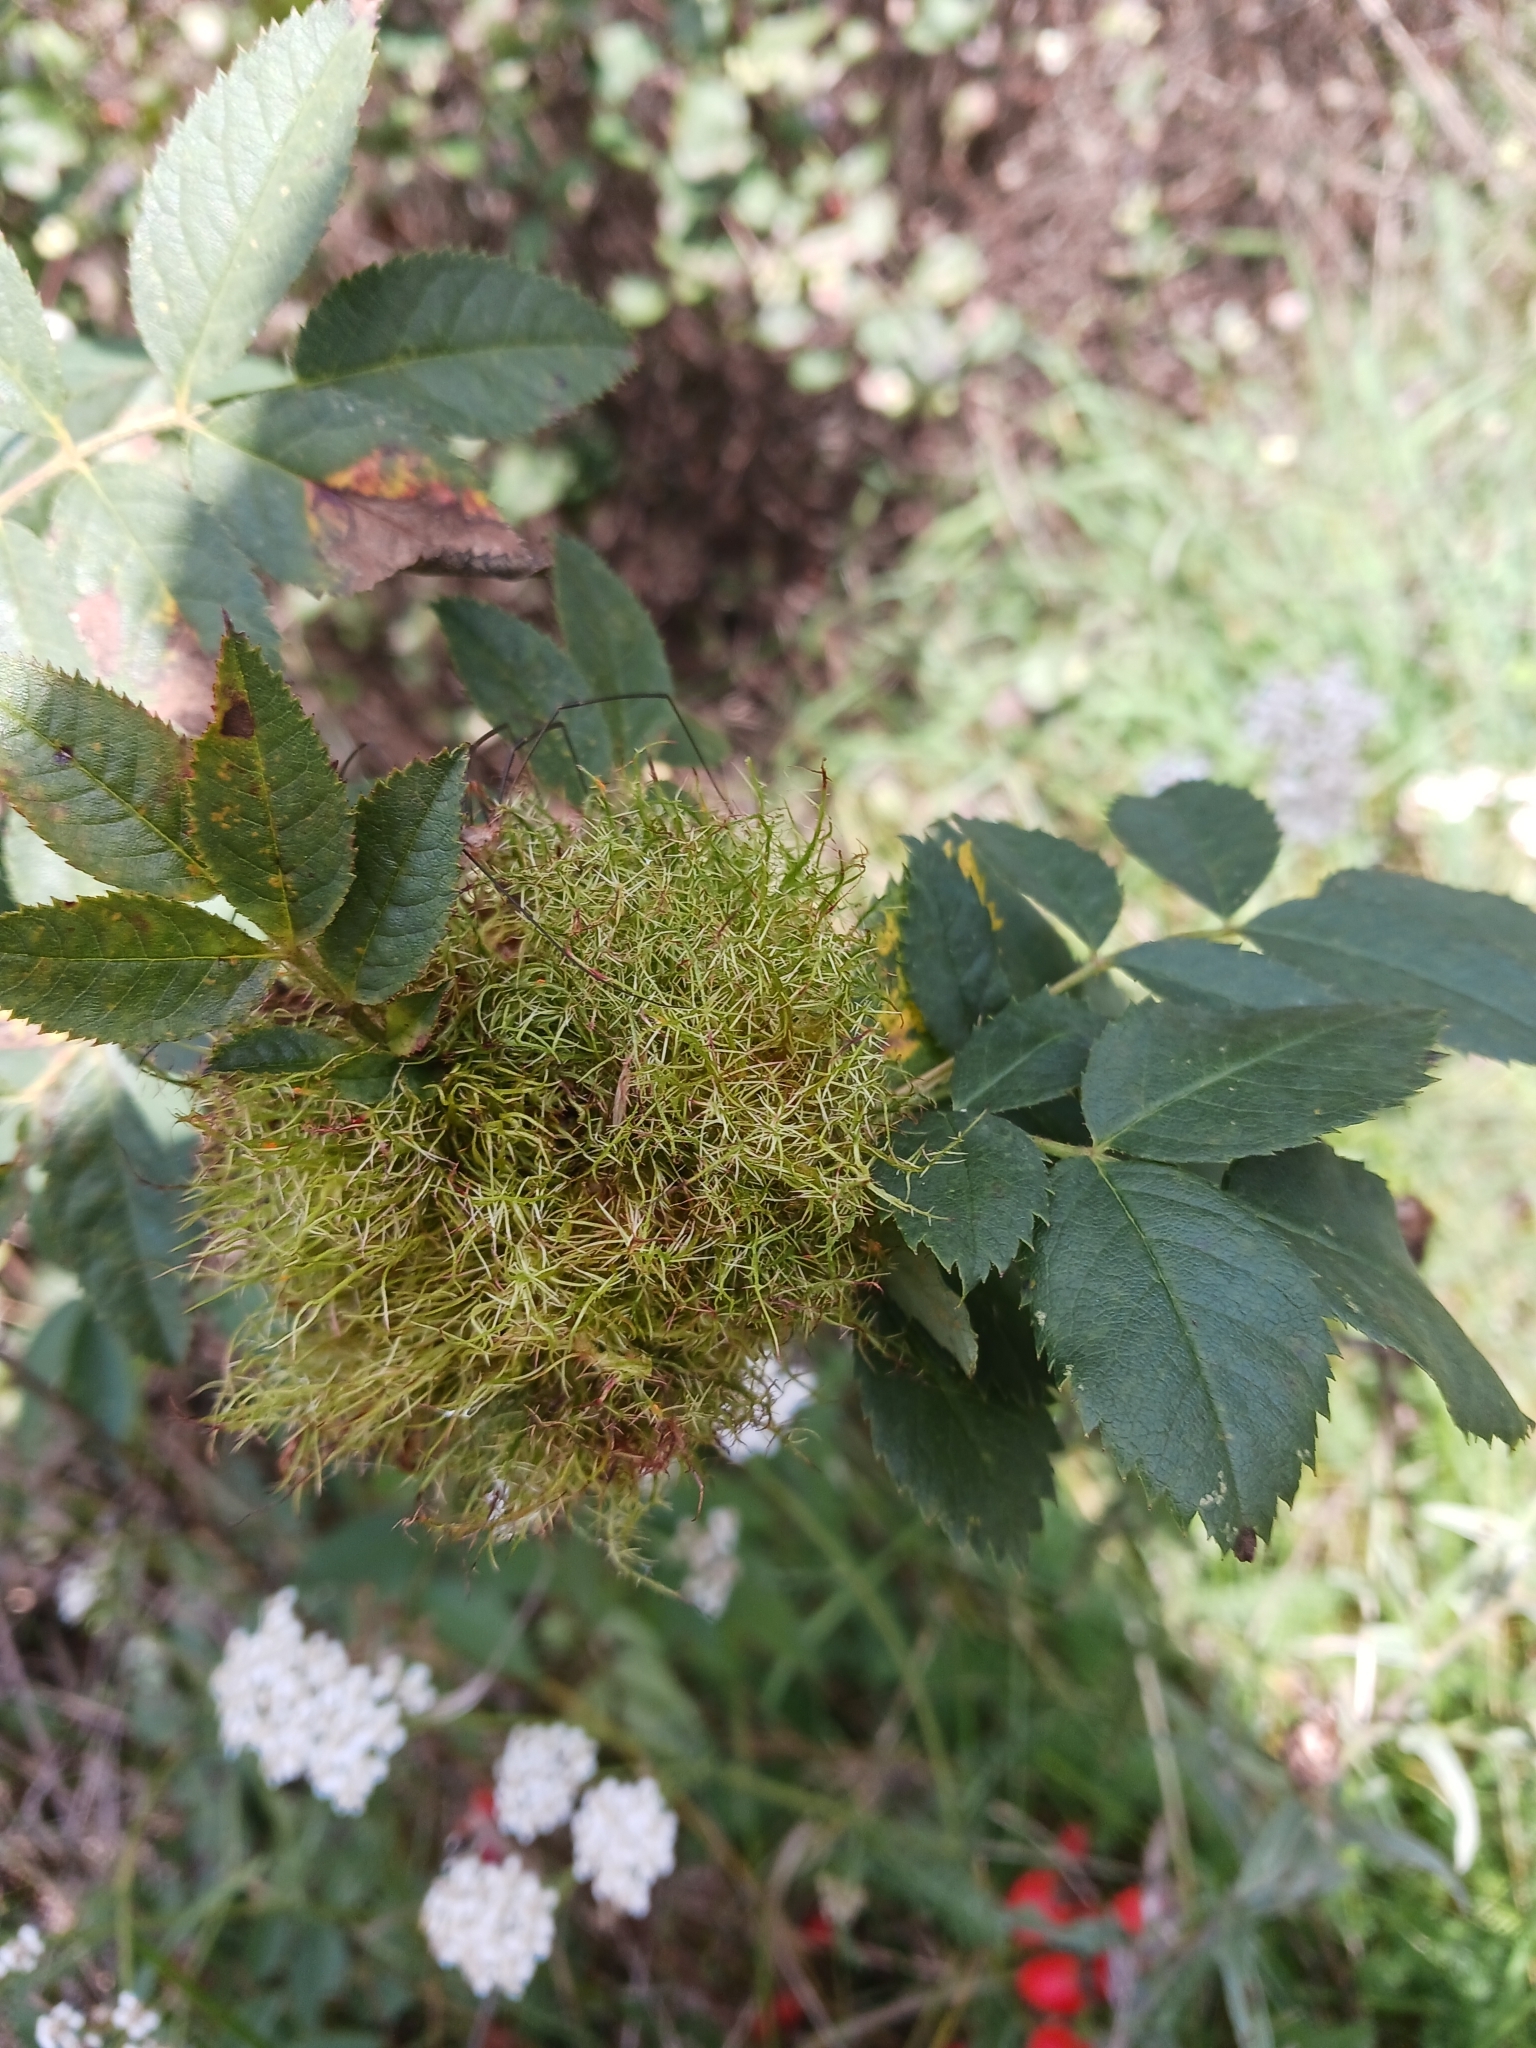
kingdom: Animalia
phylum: Arthropoda
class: Insecta
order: Hymenoptera
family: Cynipidae
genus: Diplolepis
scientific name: Diplolepis rosae
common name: Bedeguar gall
